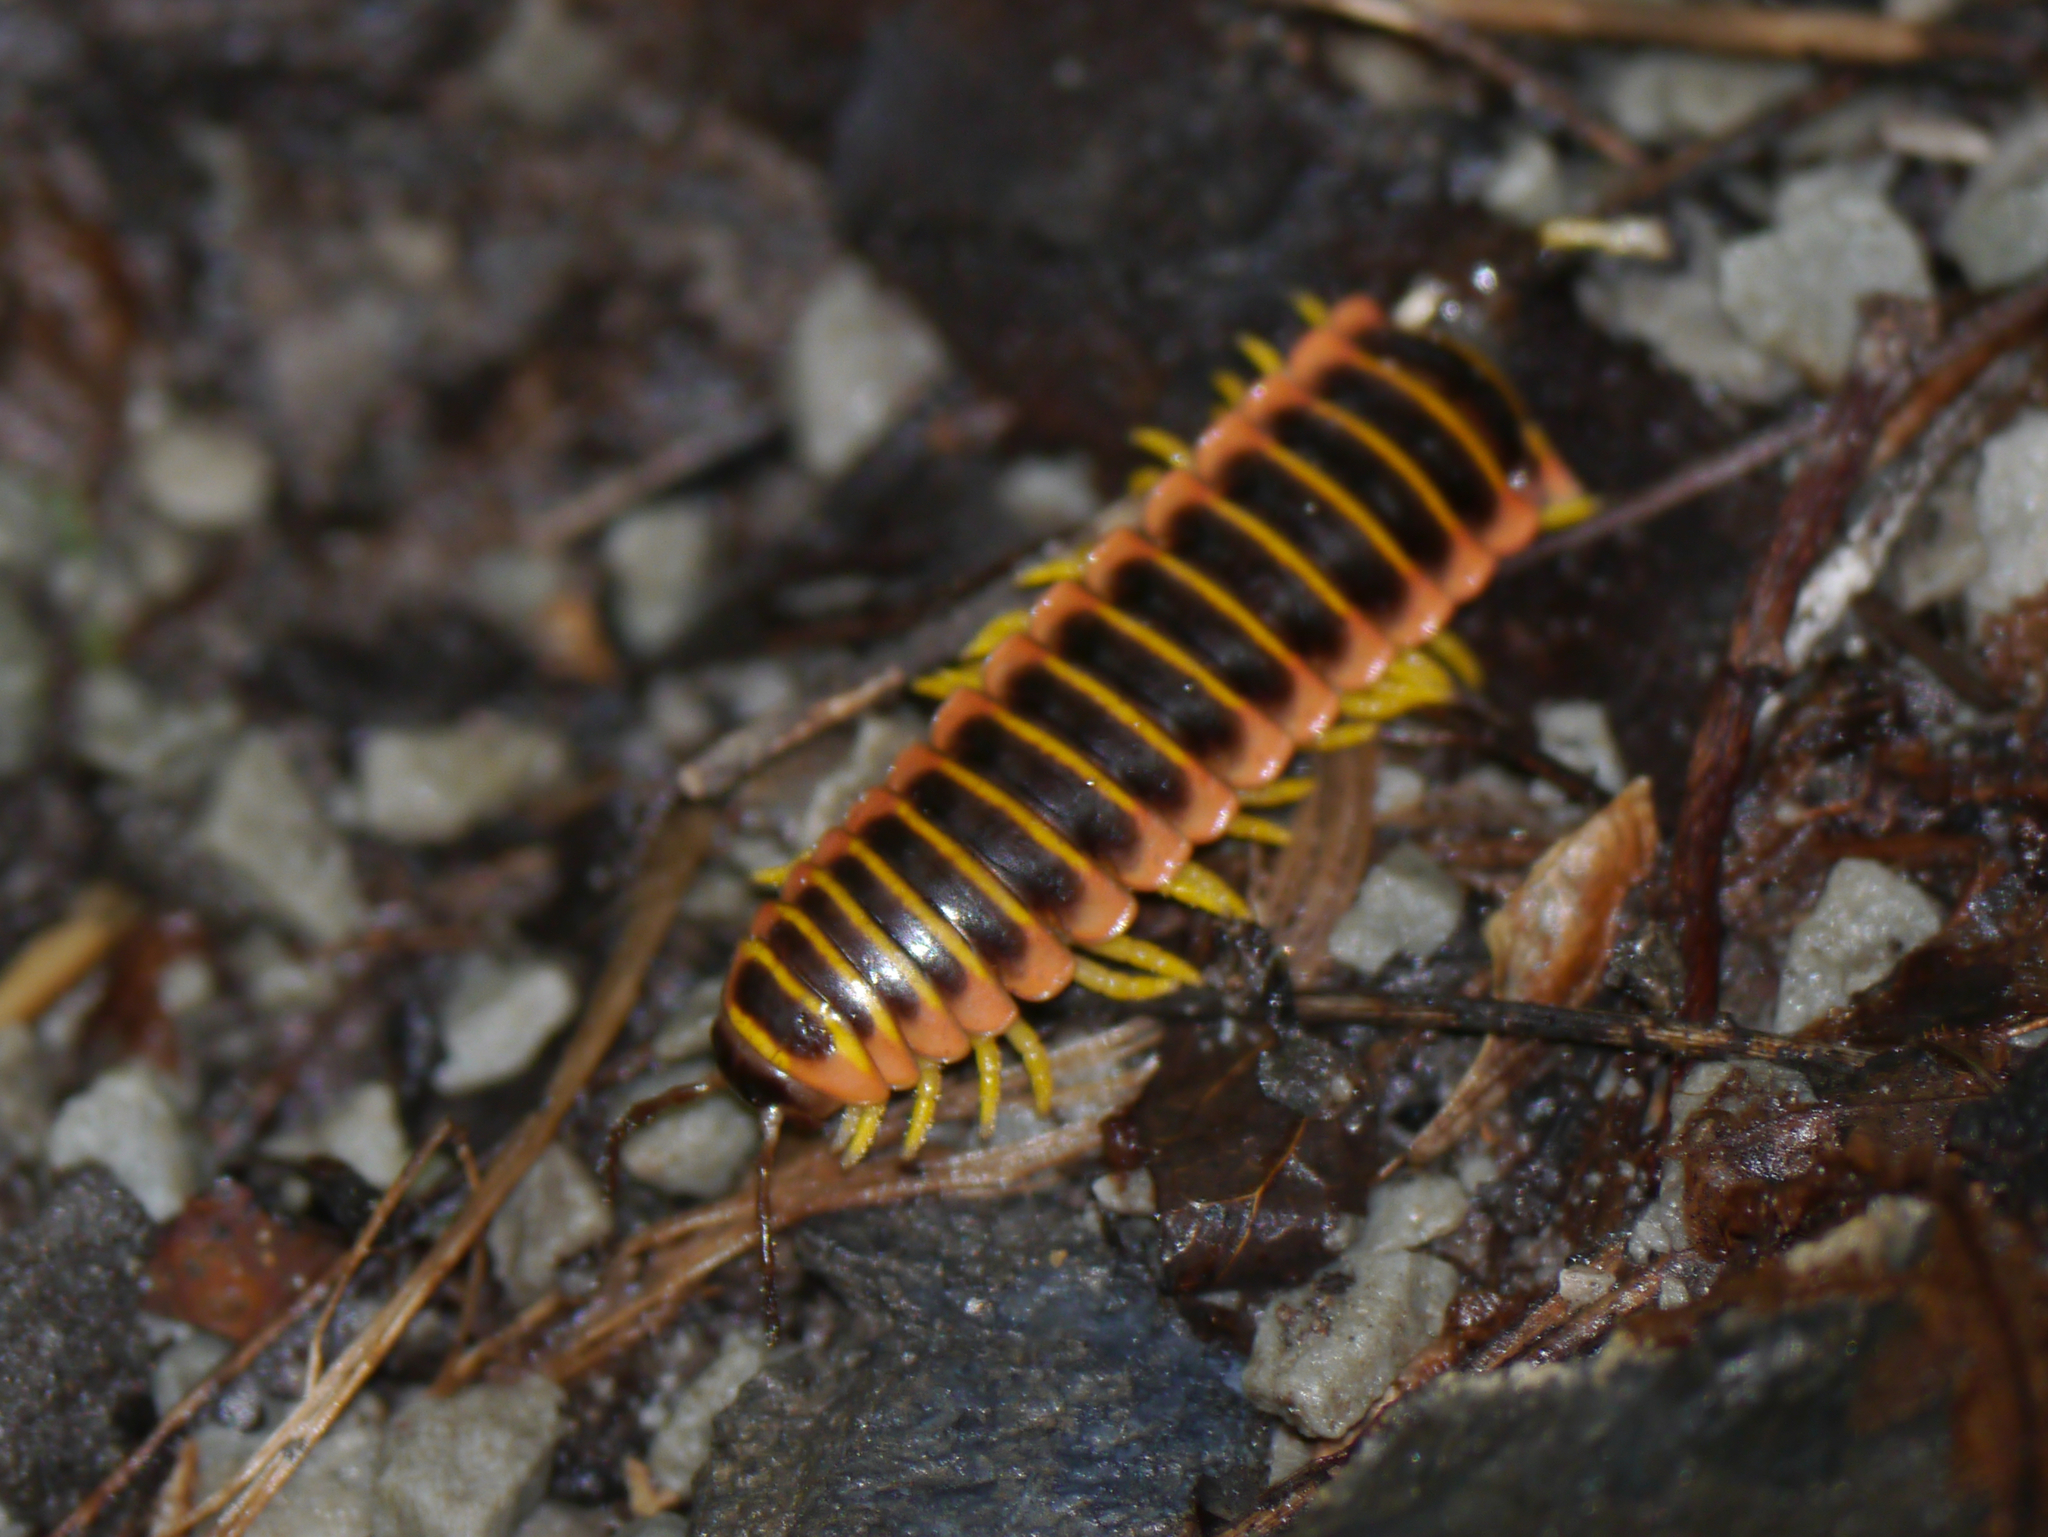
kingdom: Animalia
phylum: Arthropoda
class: Diplopoda
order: Polydesmida
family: Xystodesmidae
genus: Apheloria
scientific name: Apheloria virginiensis
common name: Black-and-gold flat millipede
